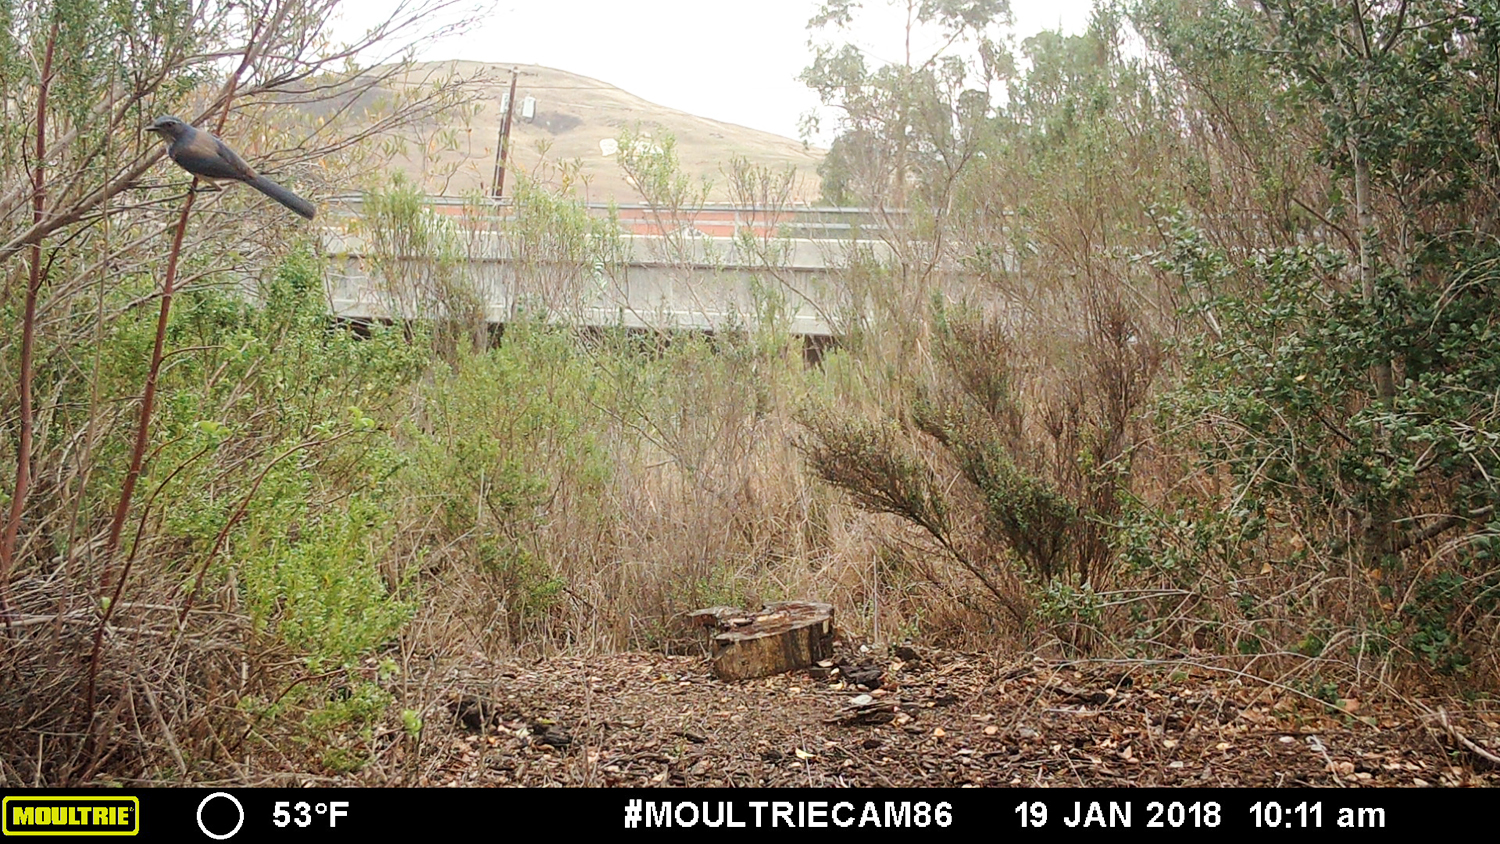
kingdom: Animalia
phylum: Chordata
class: Aves
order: Passeriformes
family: Corvidae
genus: Aphelocoma
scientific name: Aphelocoma californica
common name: California scrub-jay
